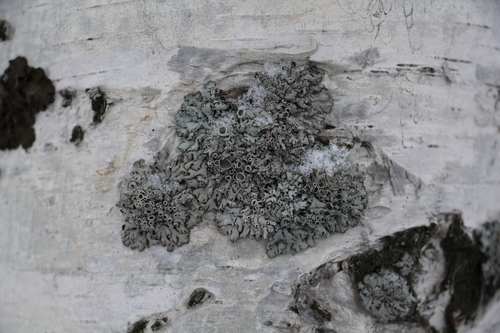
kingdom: Fungi
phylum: Ascomycota
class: Lecanoromycetes
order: Caliciales
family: Physciaceae
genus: Physcia
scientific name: Physcia stellaris
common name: Star rosette lichen
